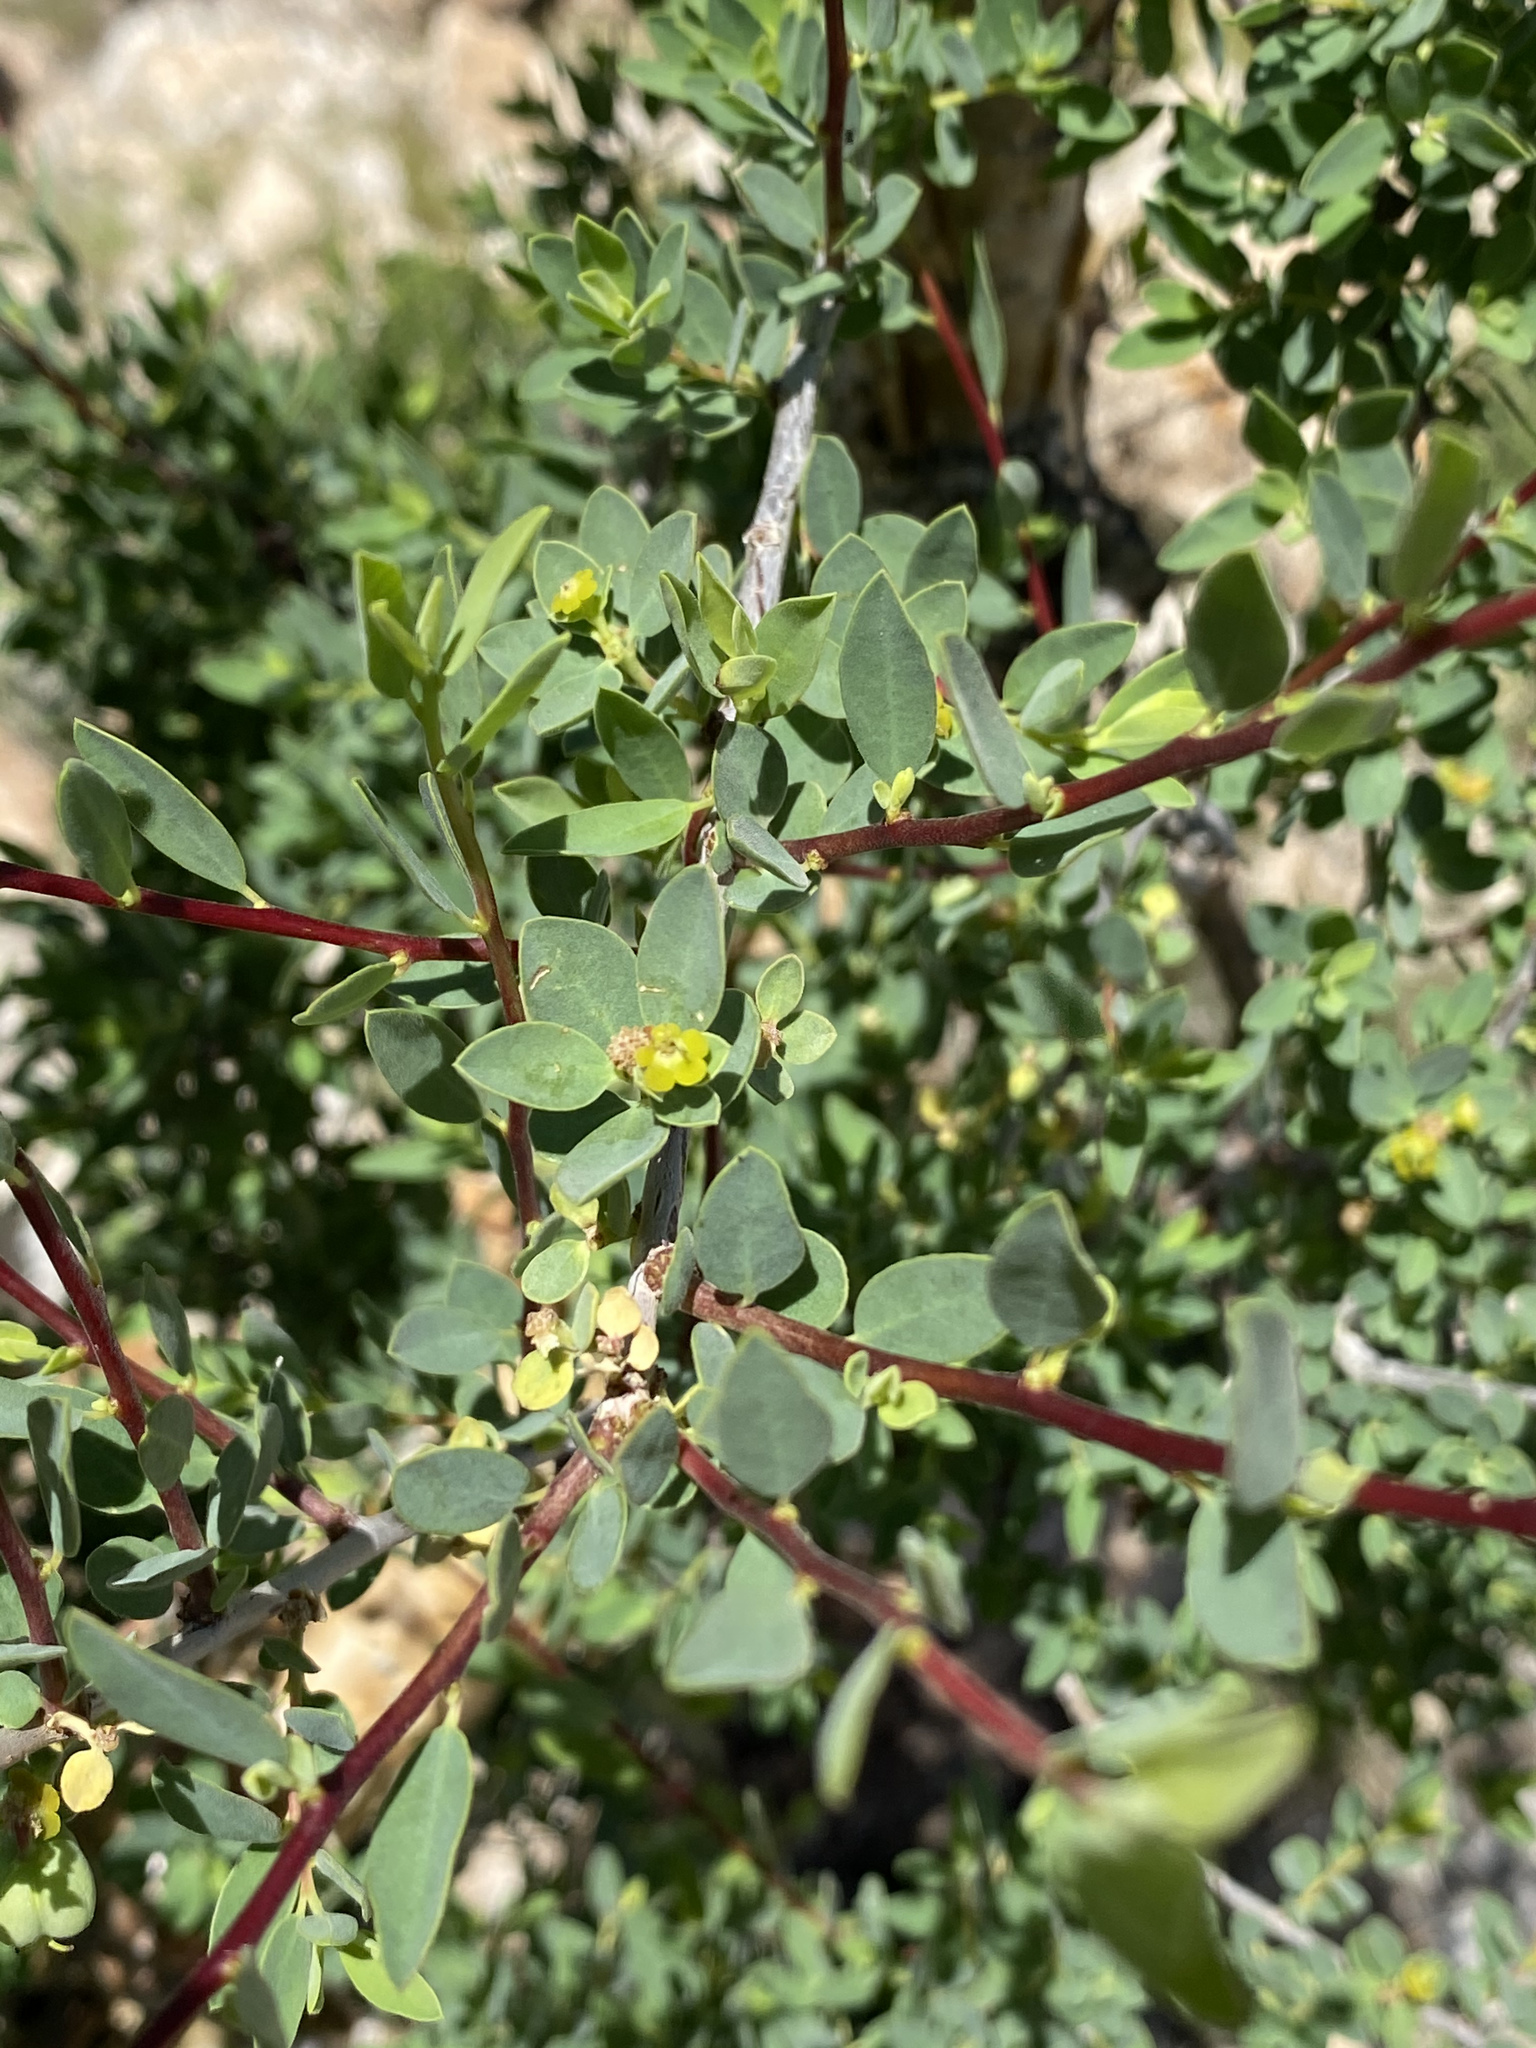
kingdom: Plantae
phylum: Tracheophyta
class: Magnoliopsida
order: Malpighiales
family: Euphorbiaceae
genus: Euphorbia
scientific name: Euphorbia guerichiana
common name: Paper-barked milkbush
